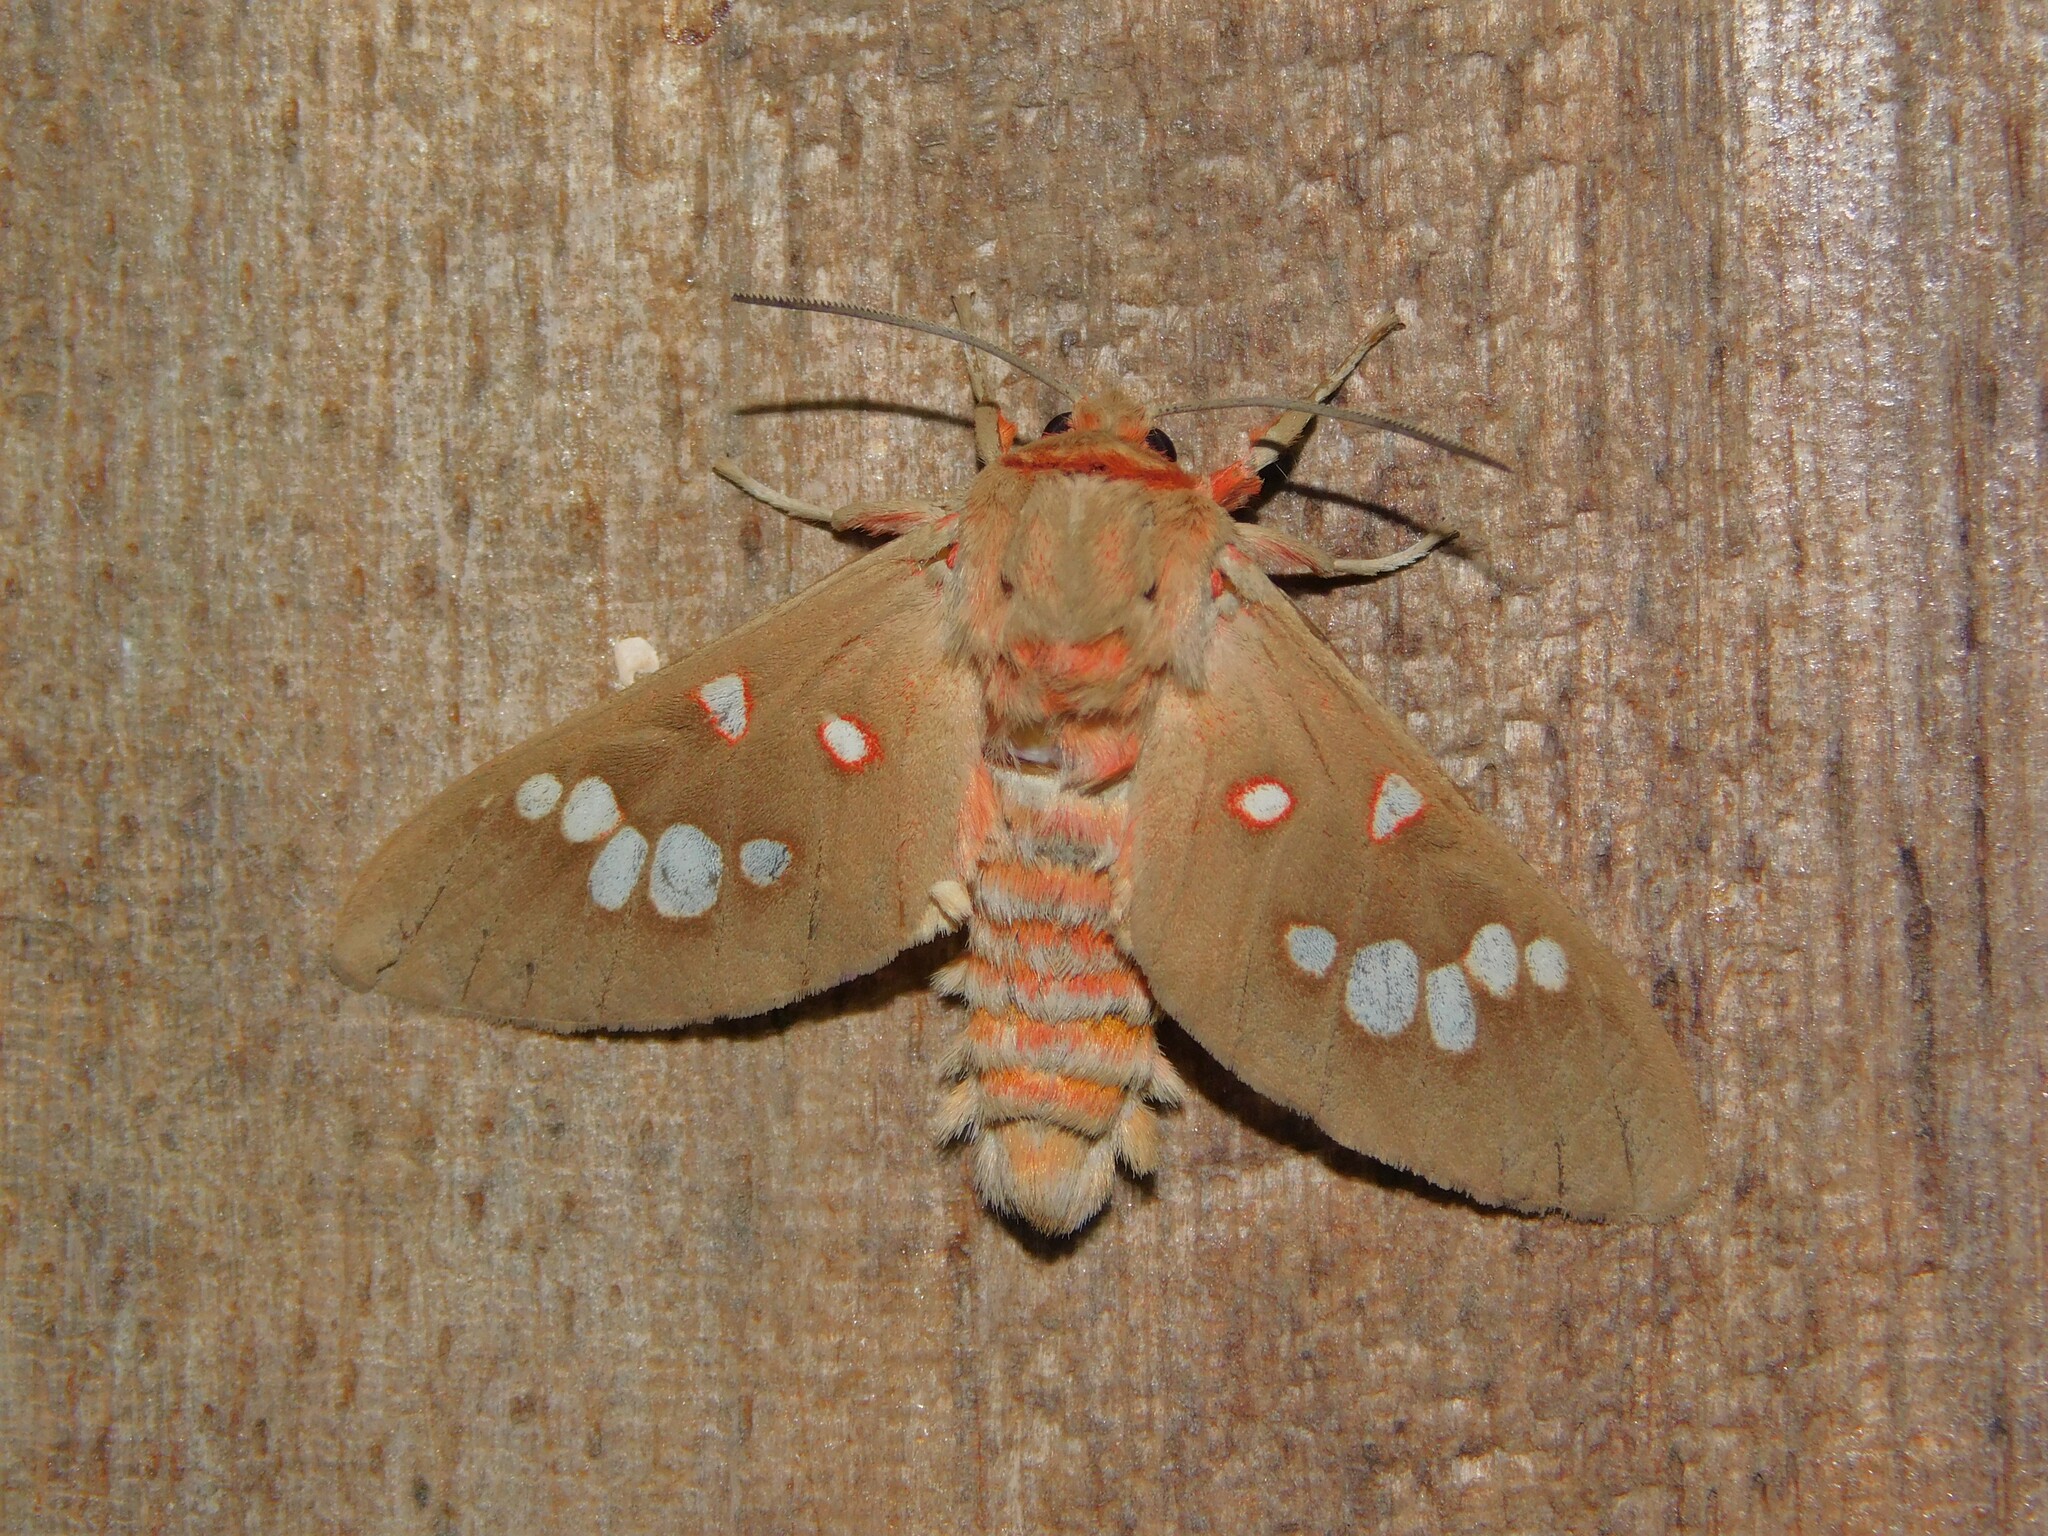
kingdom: Animalia
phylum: Arthropoda
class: Insecta
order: Lepidoptera
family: Erebidae
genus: Balacra
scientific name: Balacra preussi
